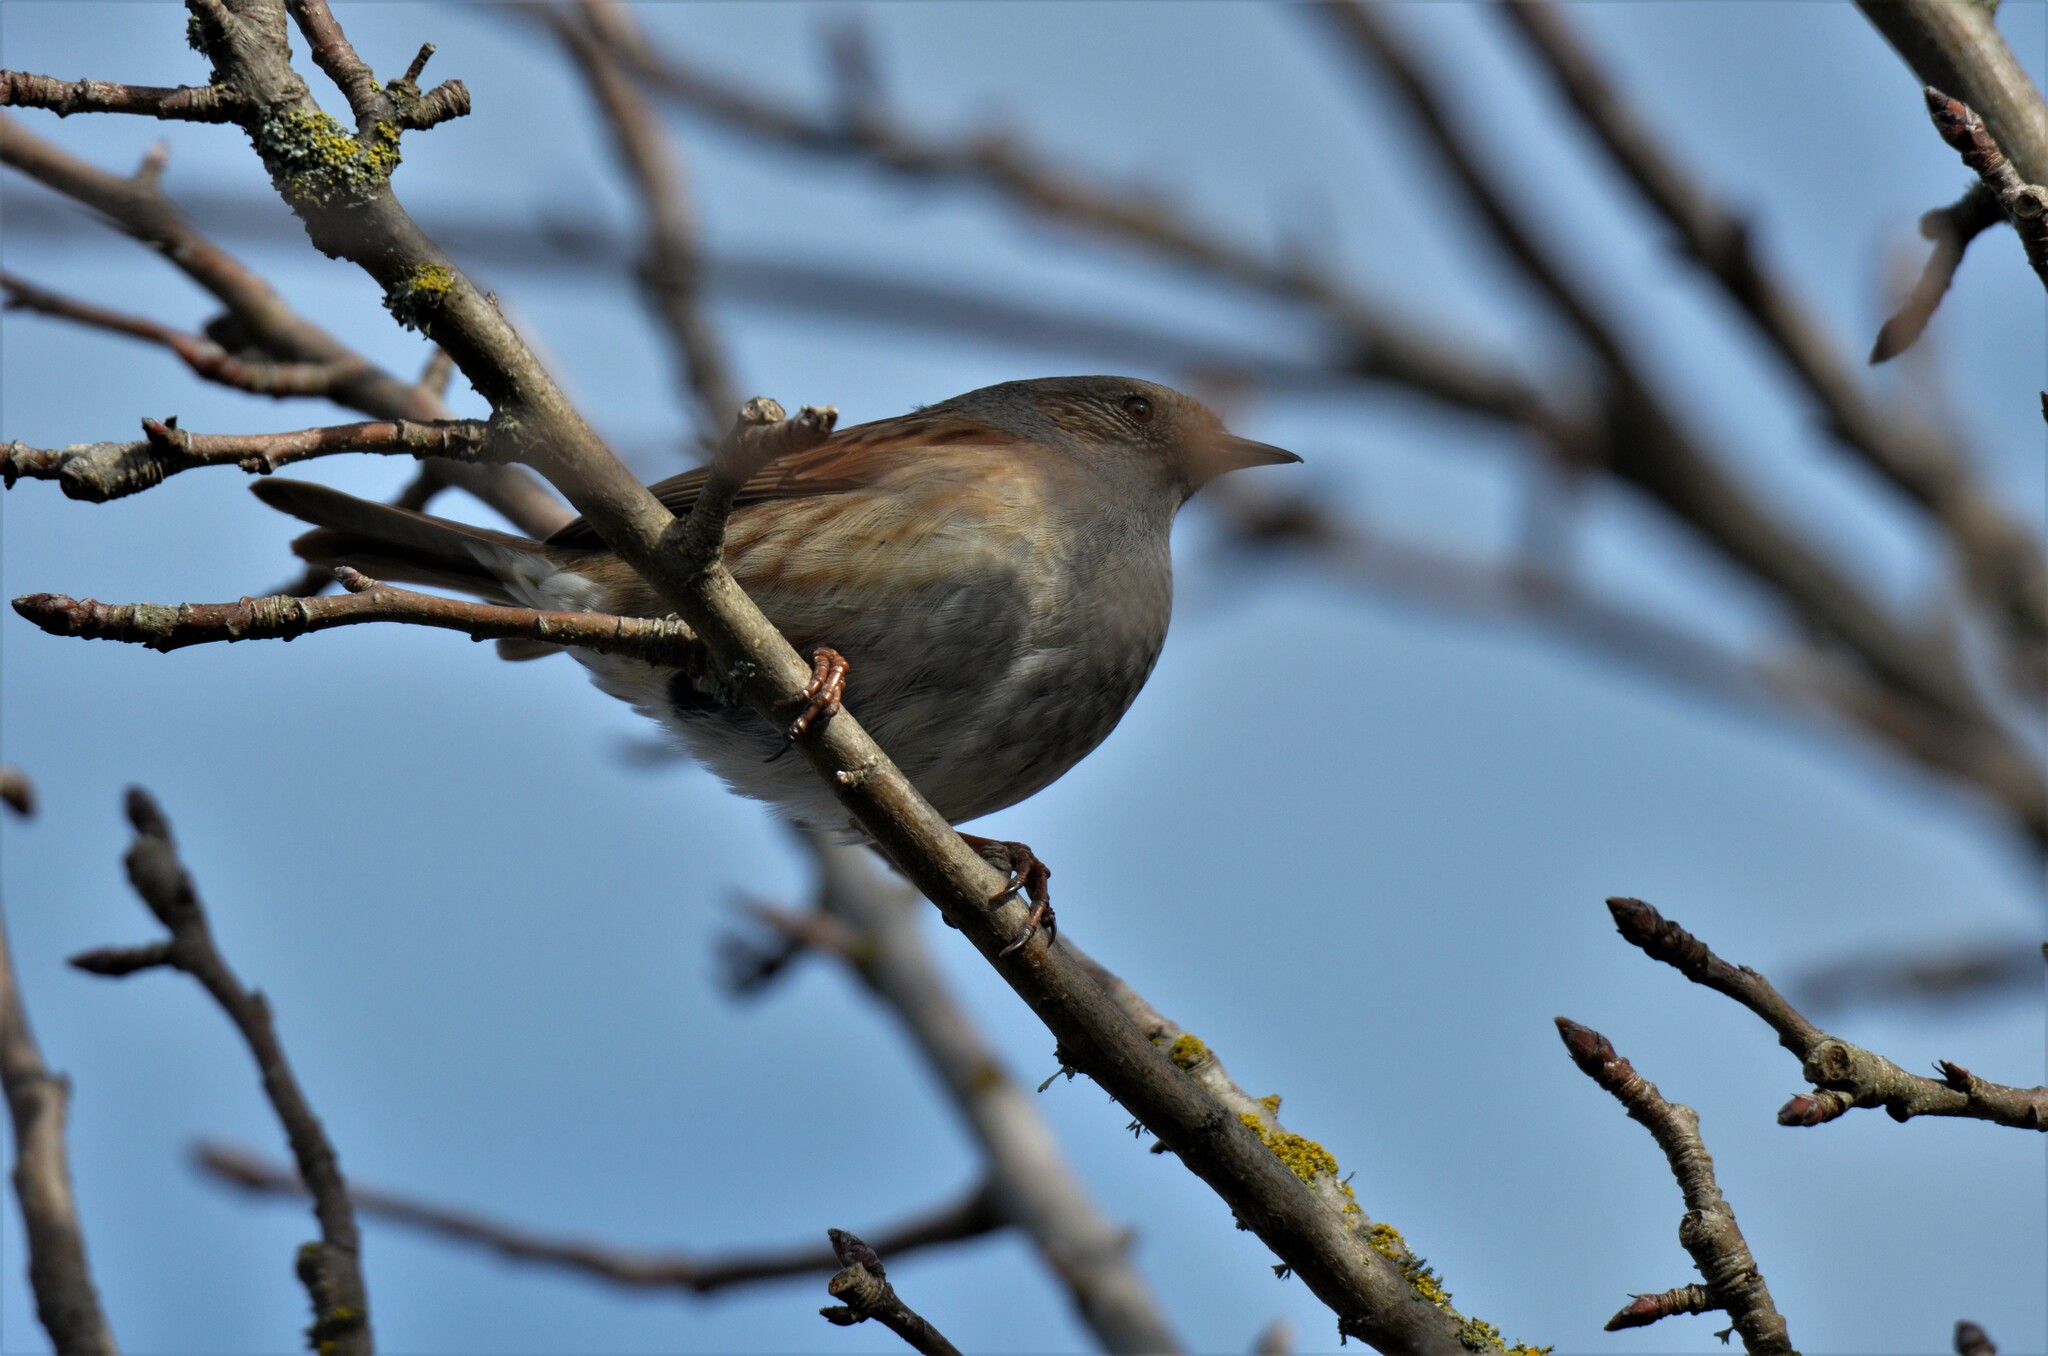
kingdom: Animalia
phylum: Chordata
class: Aves
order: Passeriformes
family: Prunellidae
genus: Prunella
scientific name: Prunella modularis
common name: Dunnock
